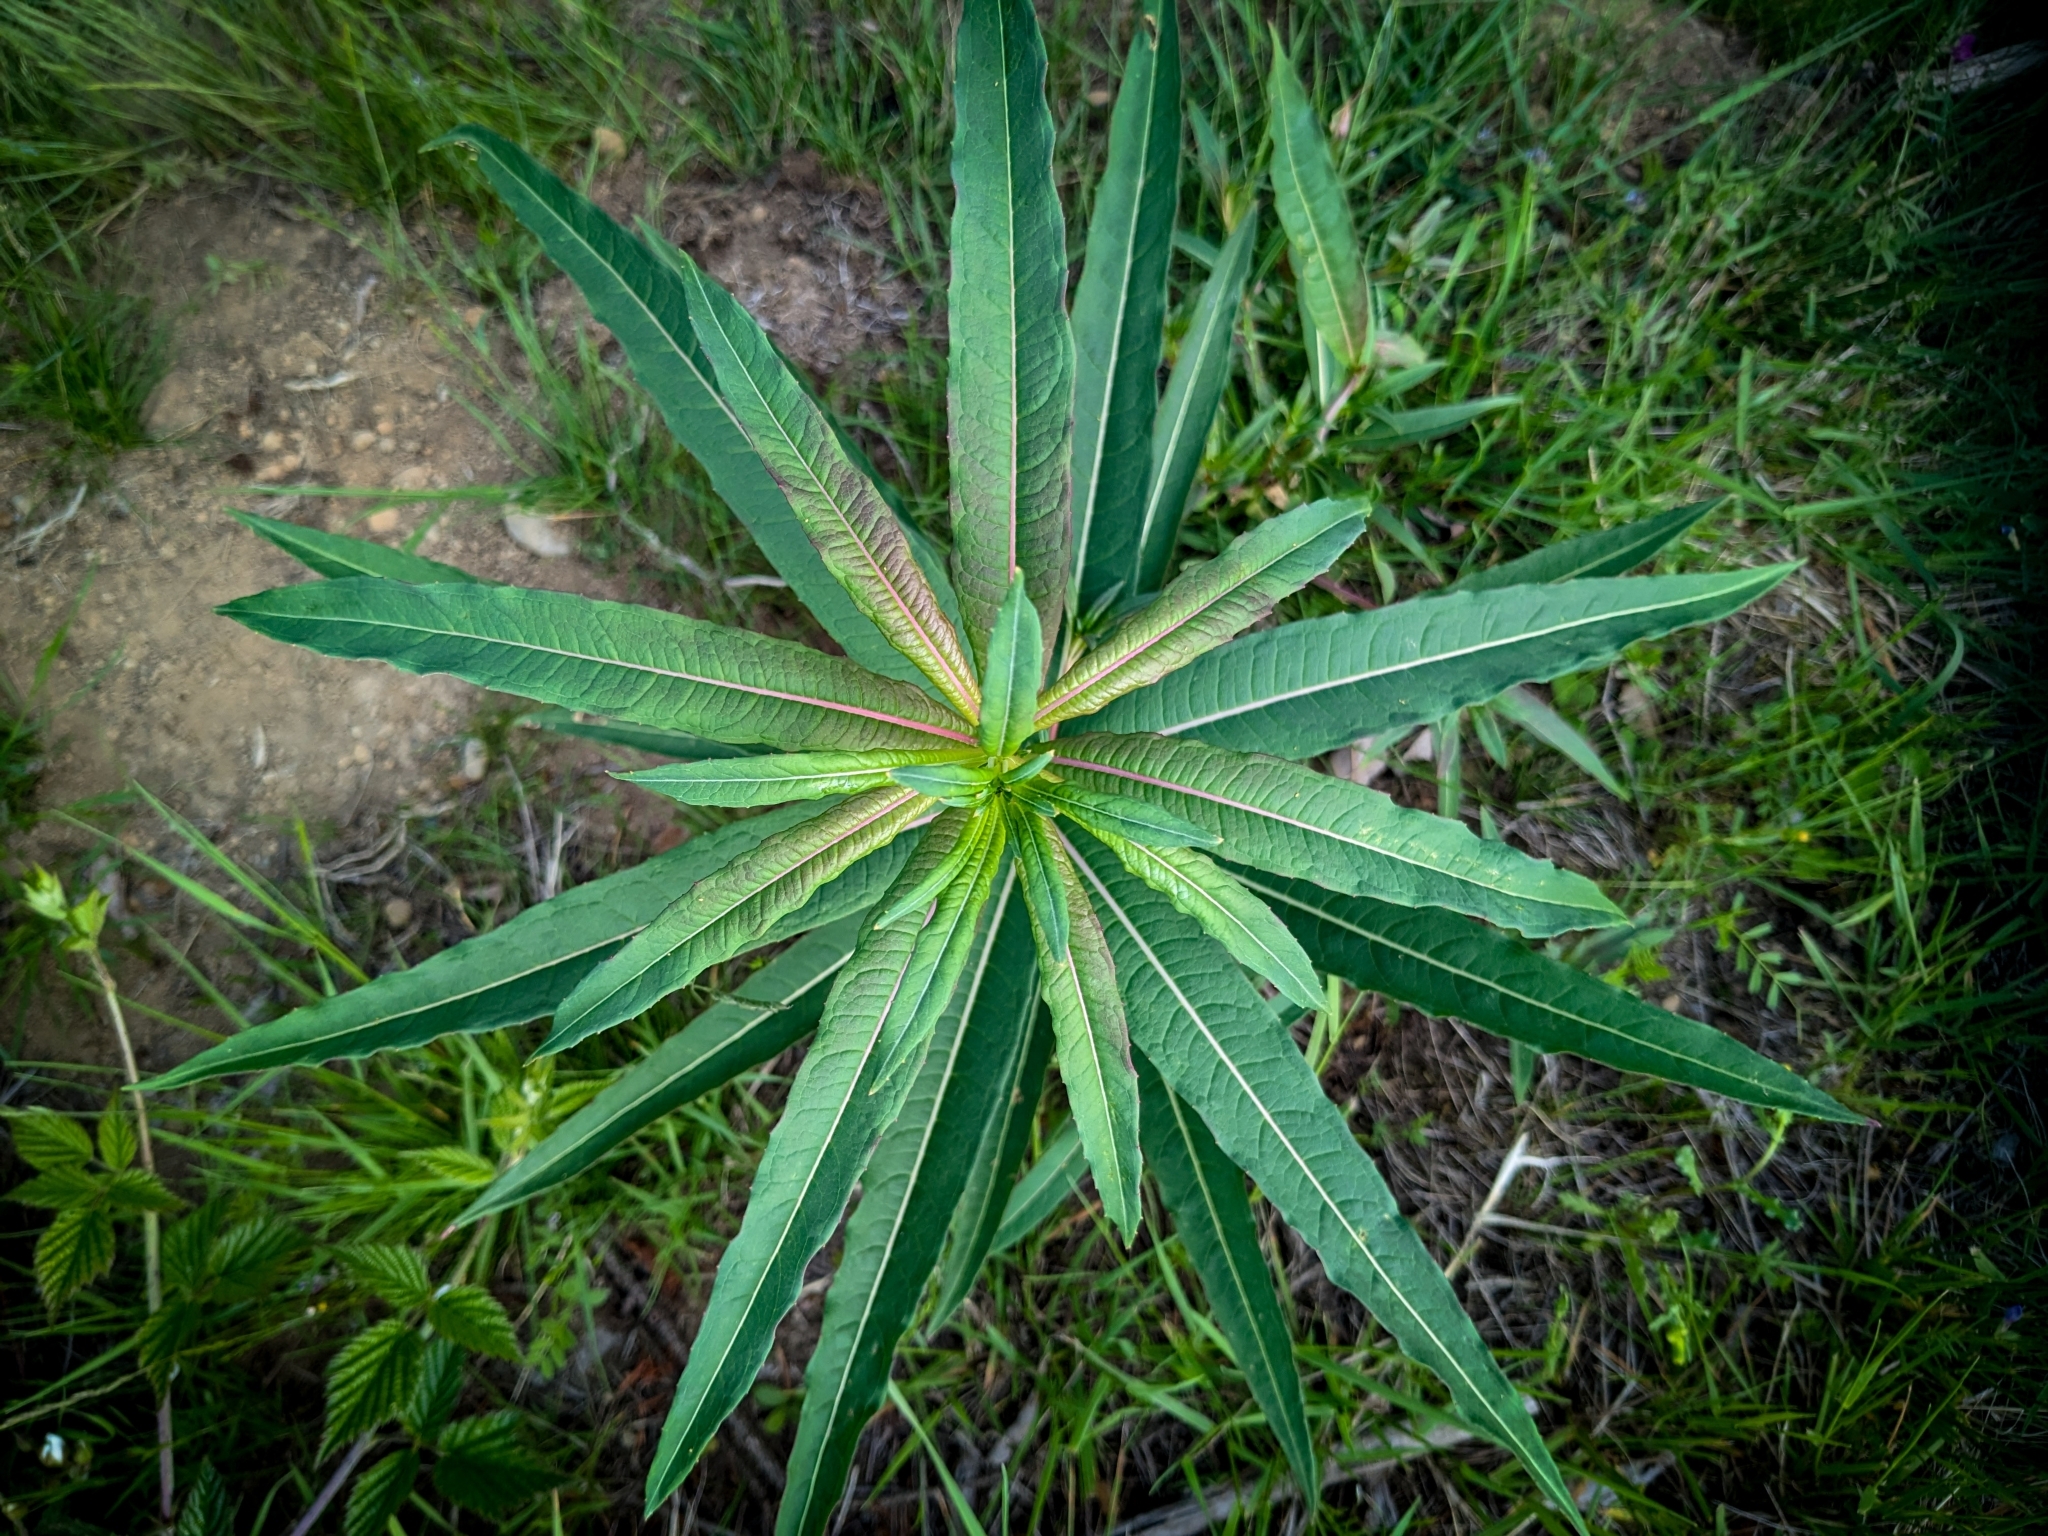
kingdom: Plantae
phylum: Tracheophyta
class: Magnoliopsida
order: Myrtales
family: Onagraceae
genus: Chamaenerion
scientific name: Chamaenerion angustifolium
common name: Fireweed
